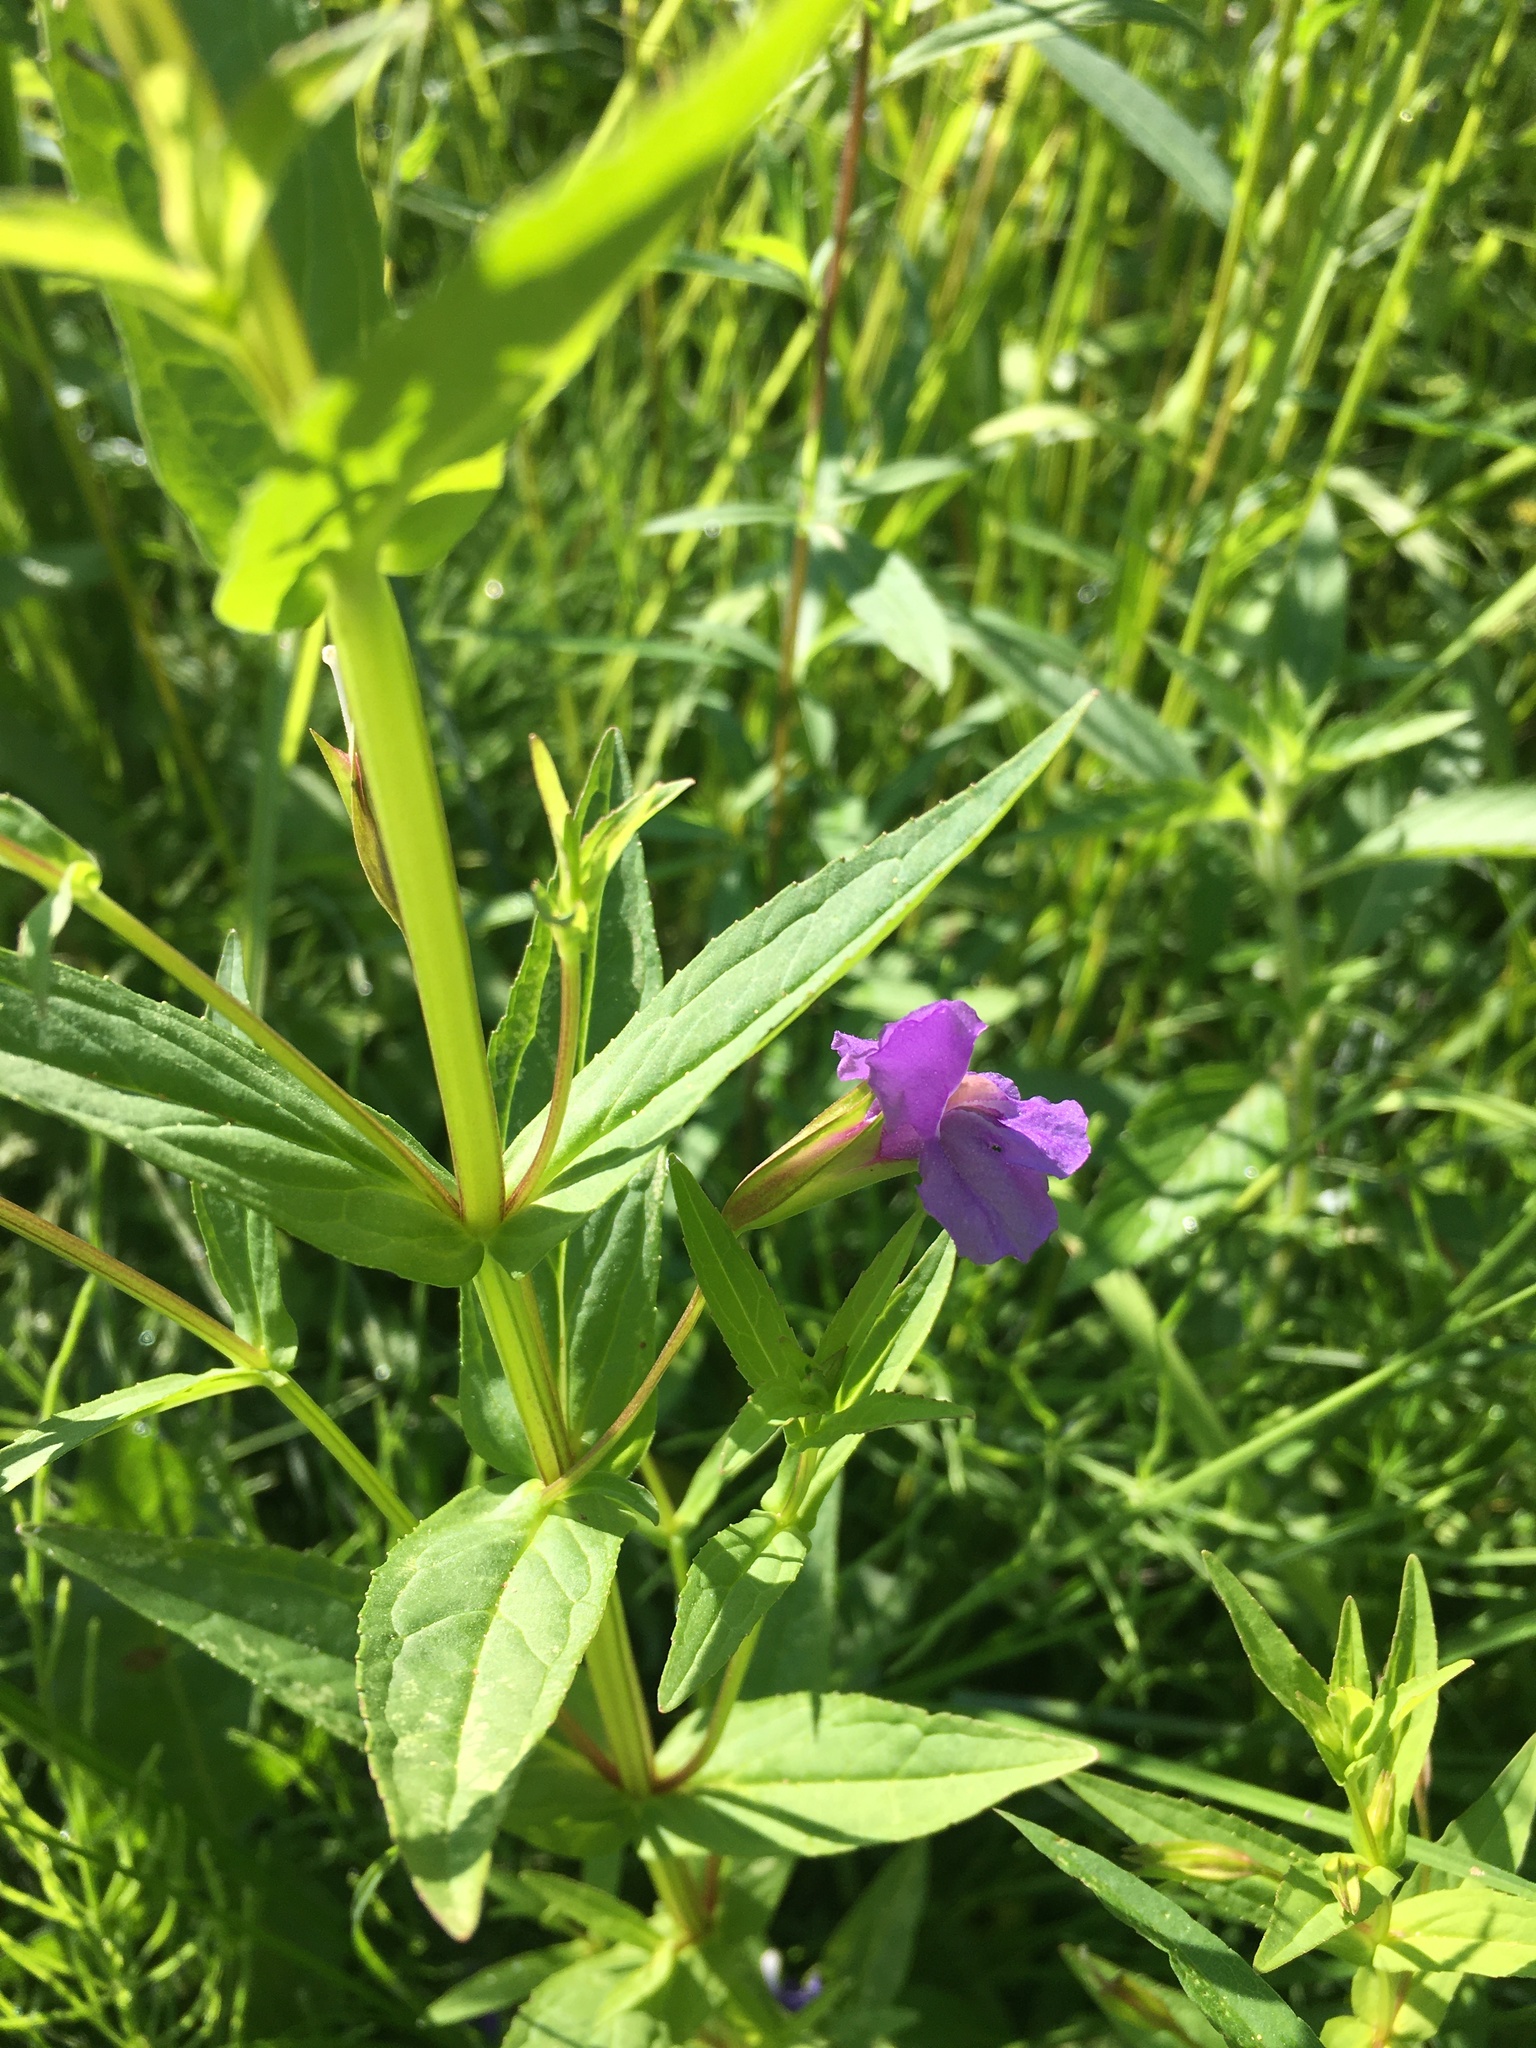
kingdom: Plantae
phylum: Tracheophyta
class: Magnoliopsida
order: Lamiales
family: Phrymaceae
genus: Mimulus
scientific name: Mimulus ringens
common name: Allegheny monkeyflower
